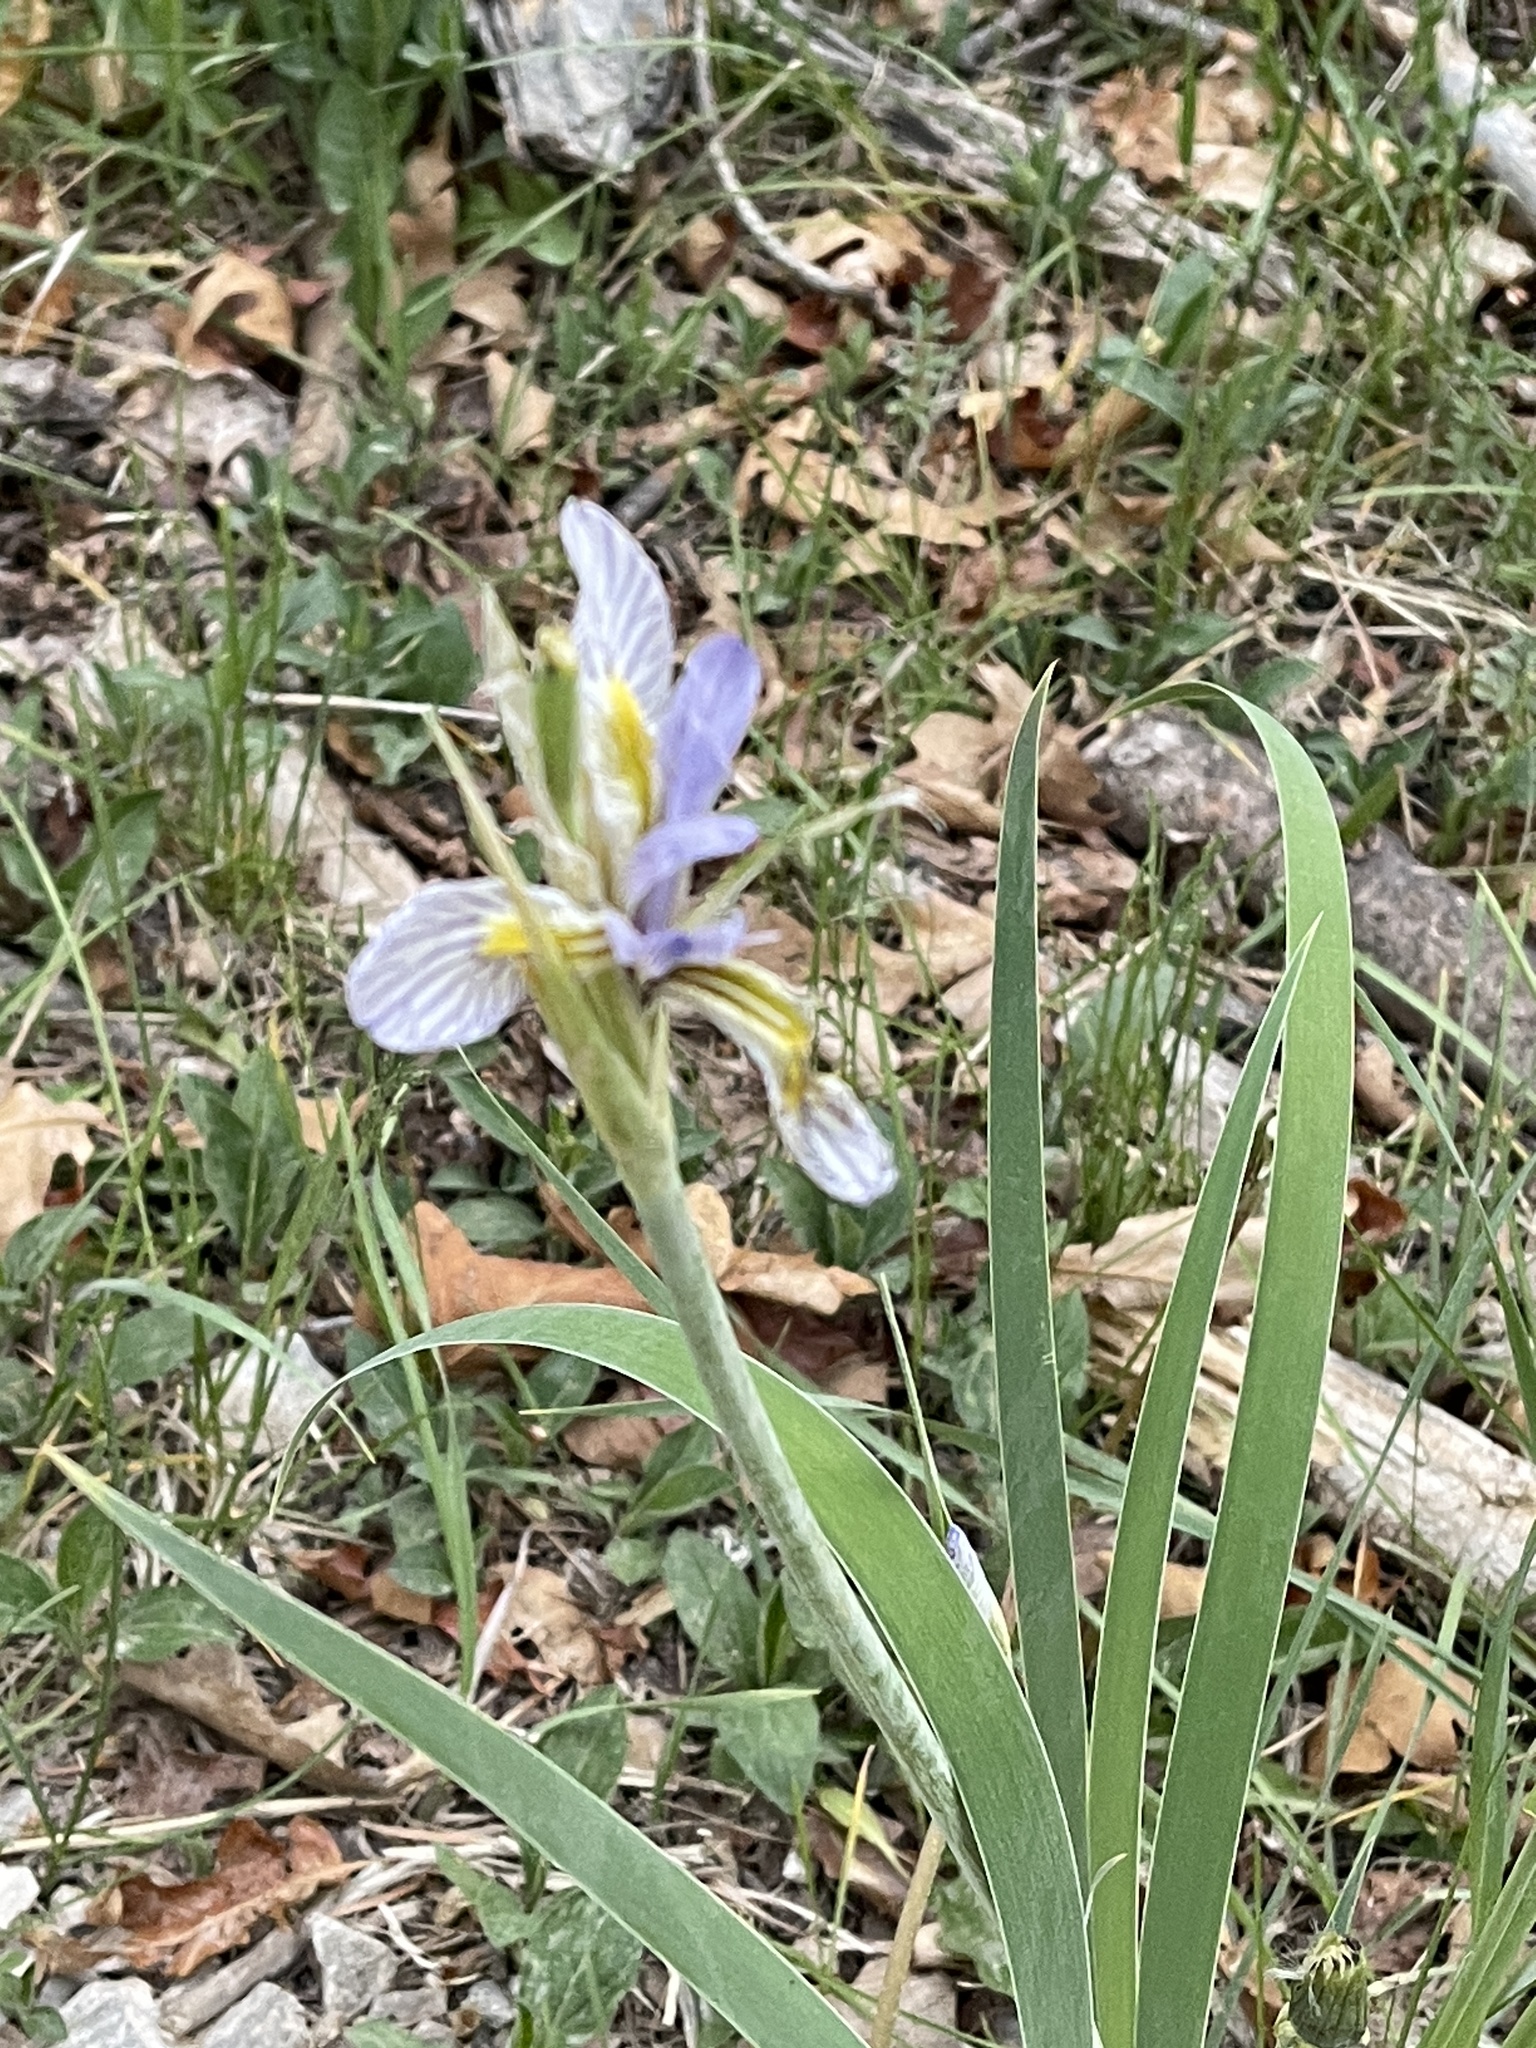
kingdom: Plantae
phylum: Tracheophyta
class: Liliopsida
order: Asparagales
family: Iridaceae
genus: Iris
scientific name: Iris missouriensis
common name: Rocky mountain iris
